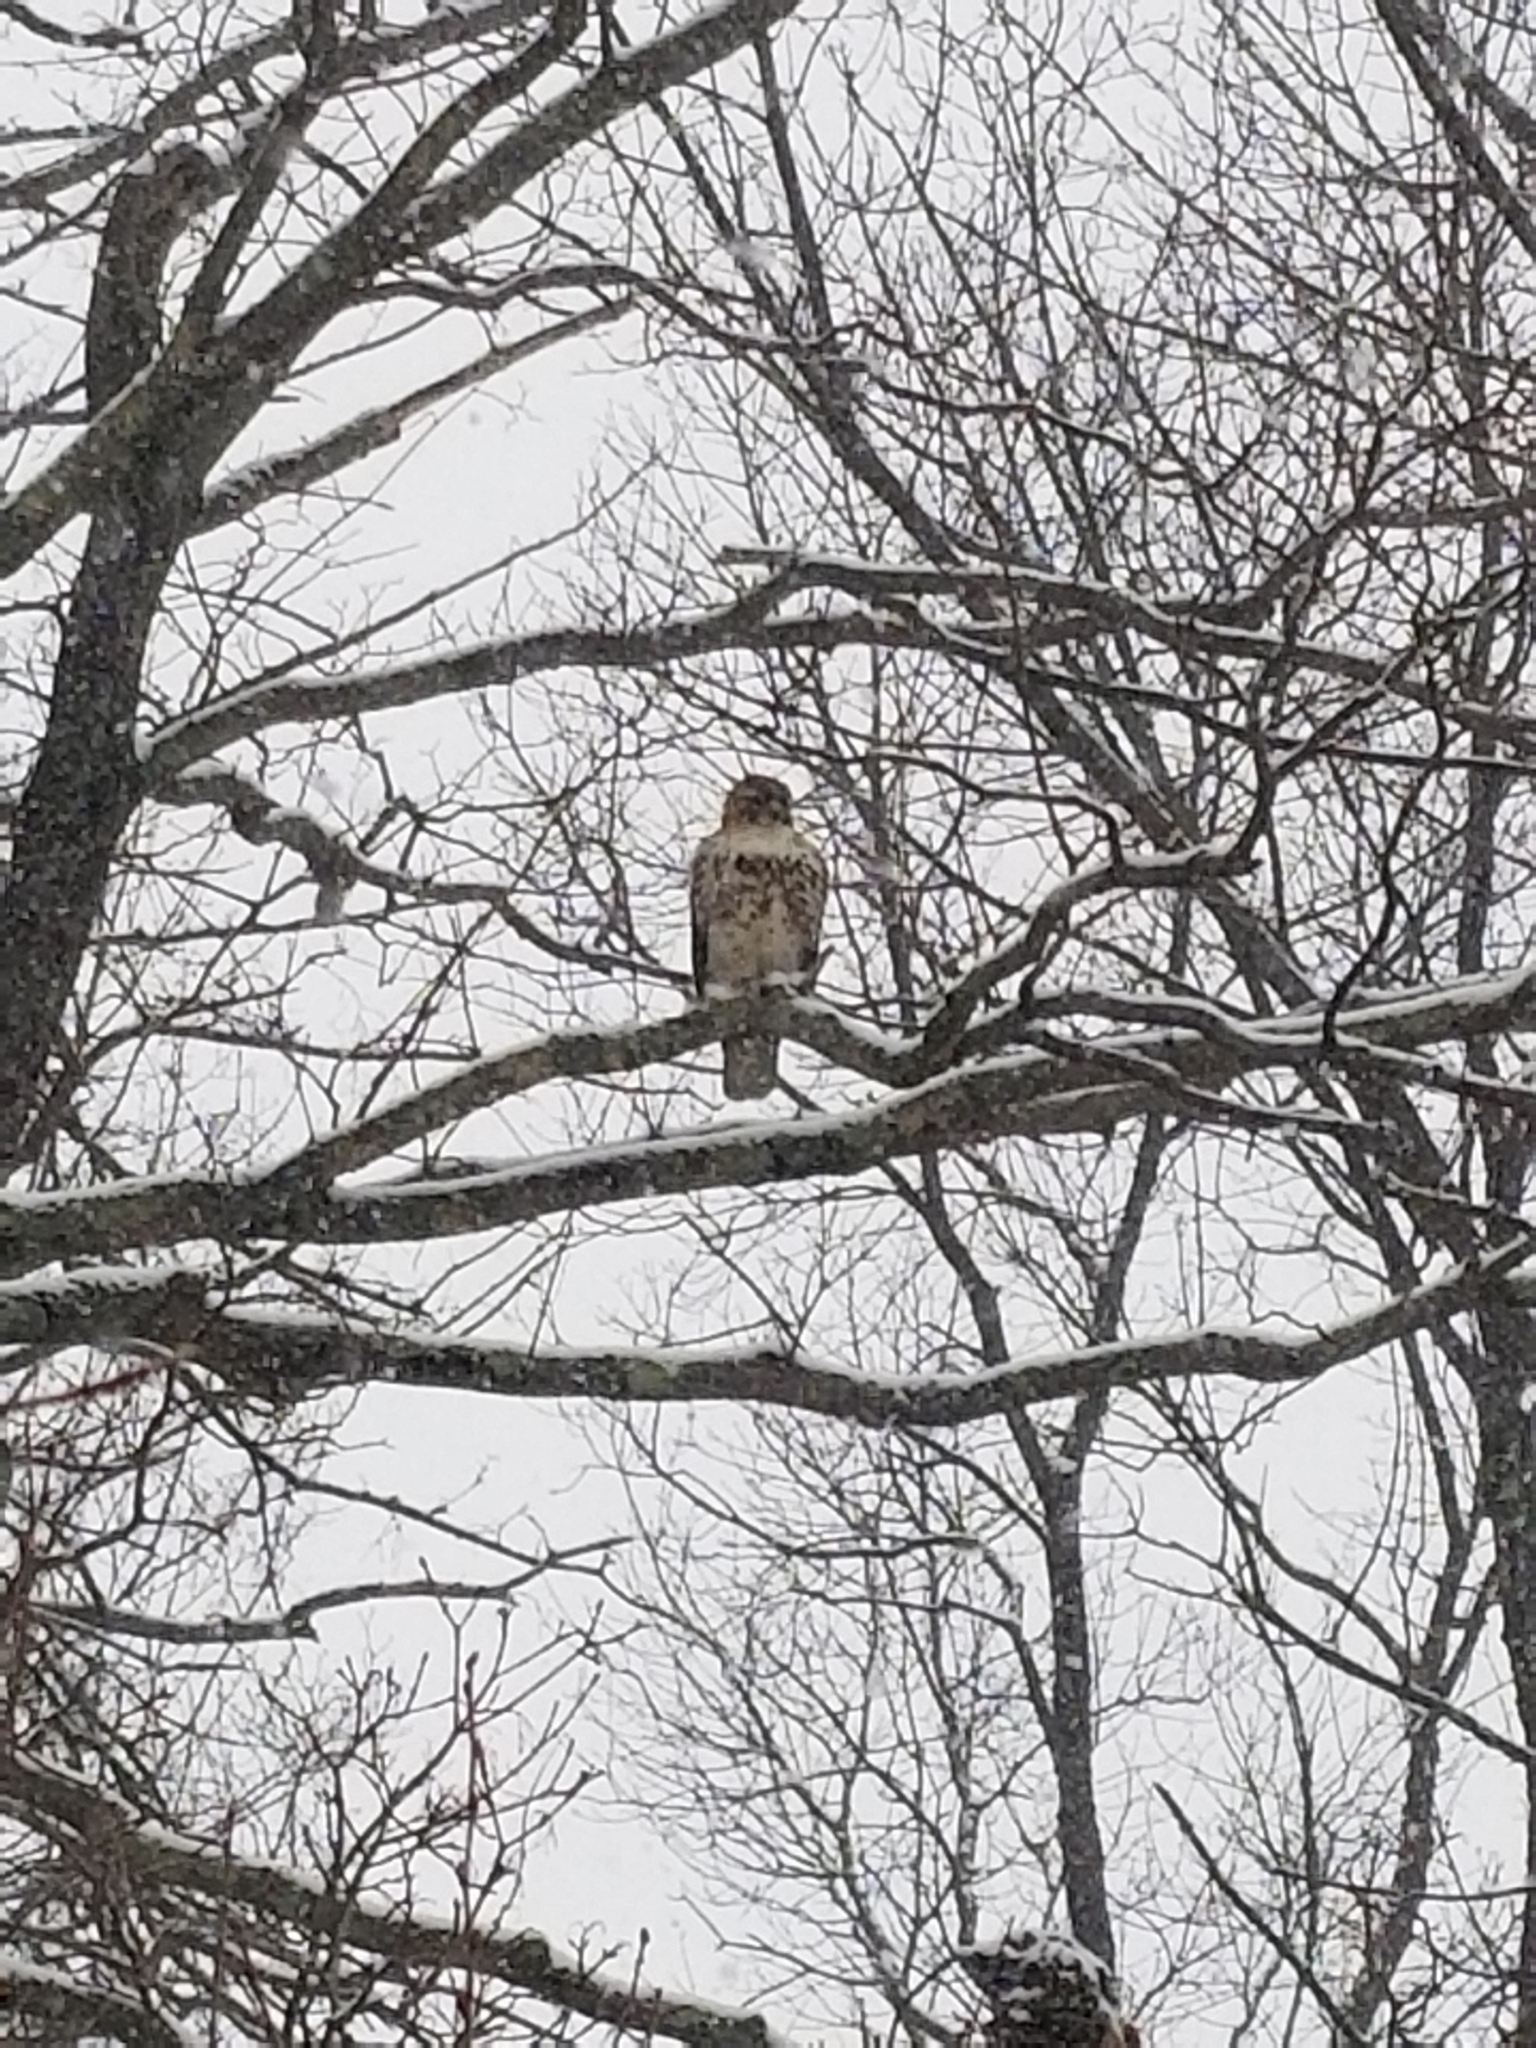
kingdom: Animalia
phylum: Chordata
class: Aves
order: Accipitriformes
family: Accipitridae
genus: Buteo
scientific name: Buteo jamaicensis
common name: Red-tailed hawk
